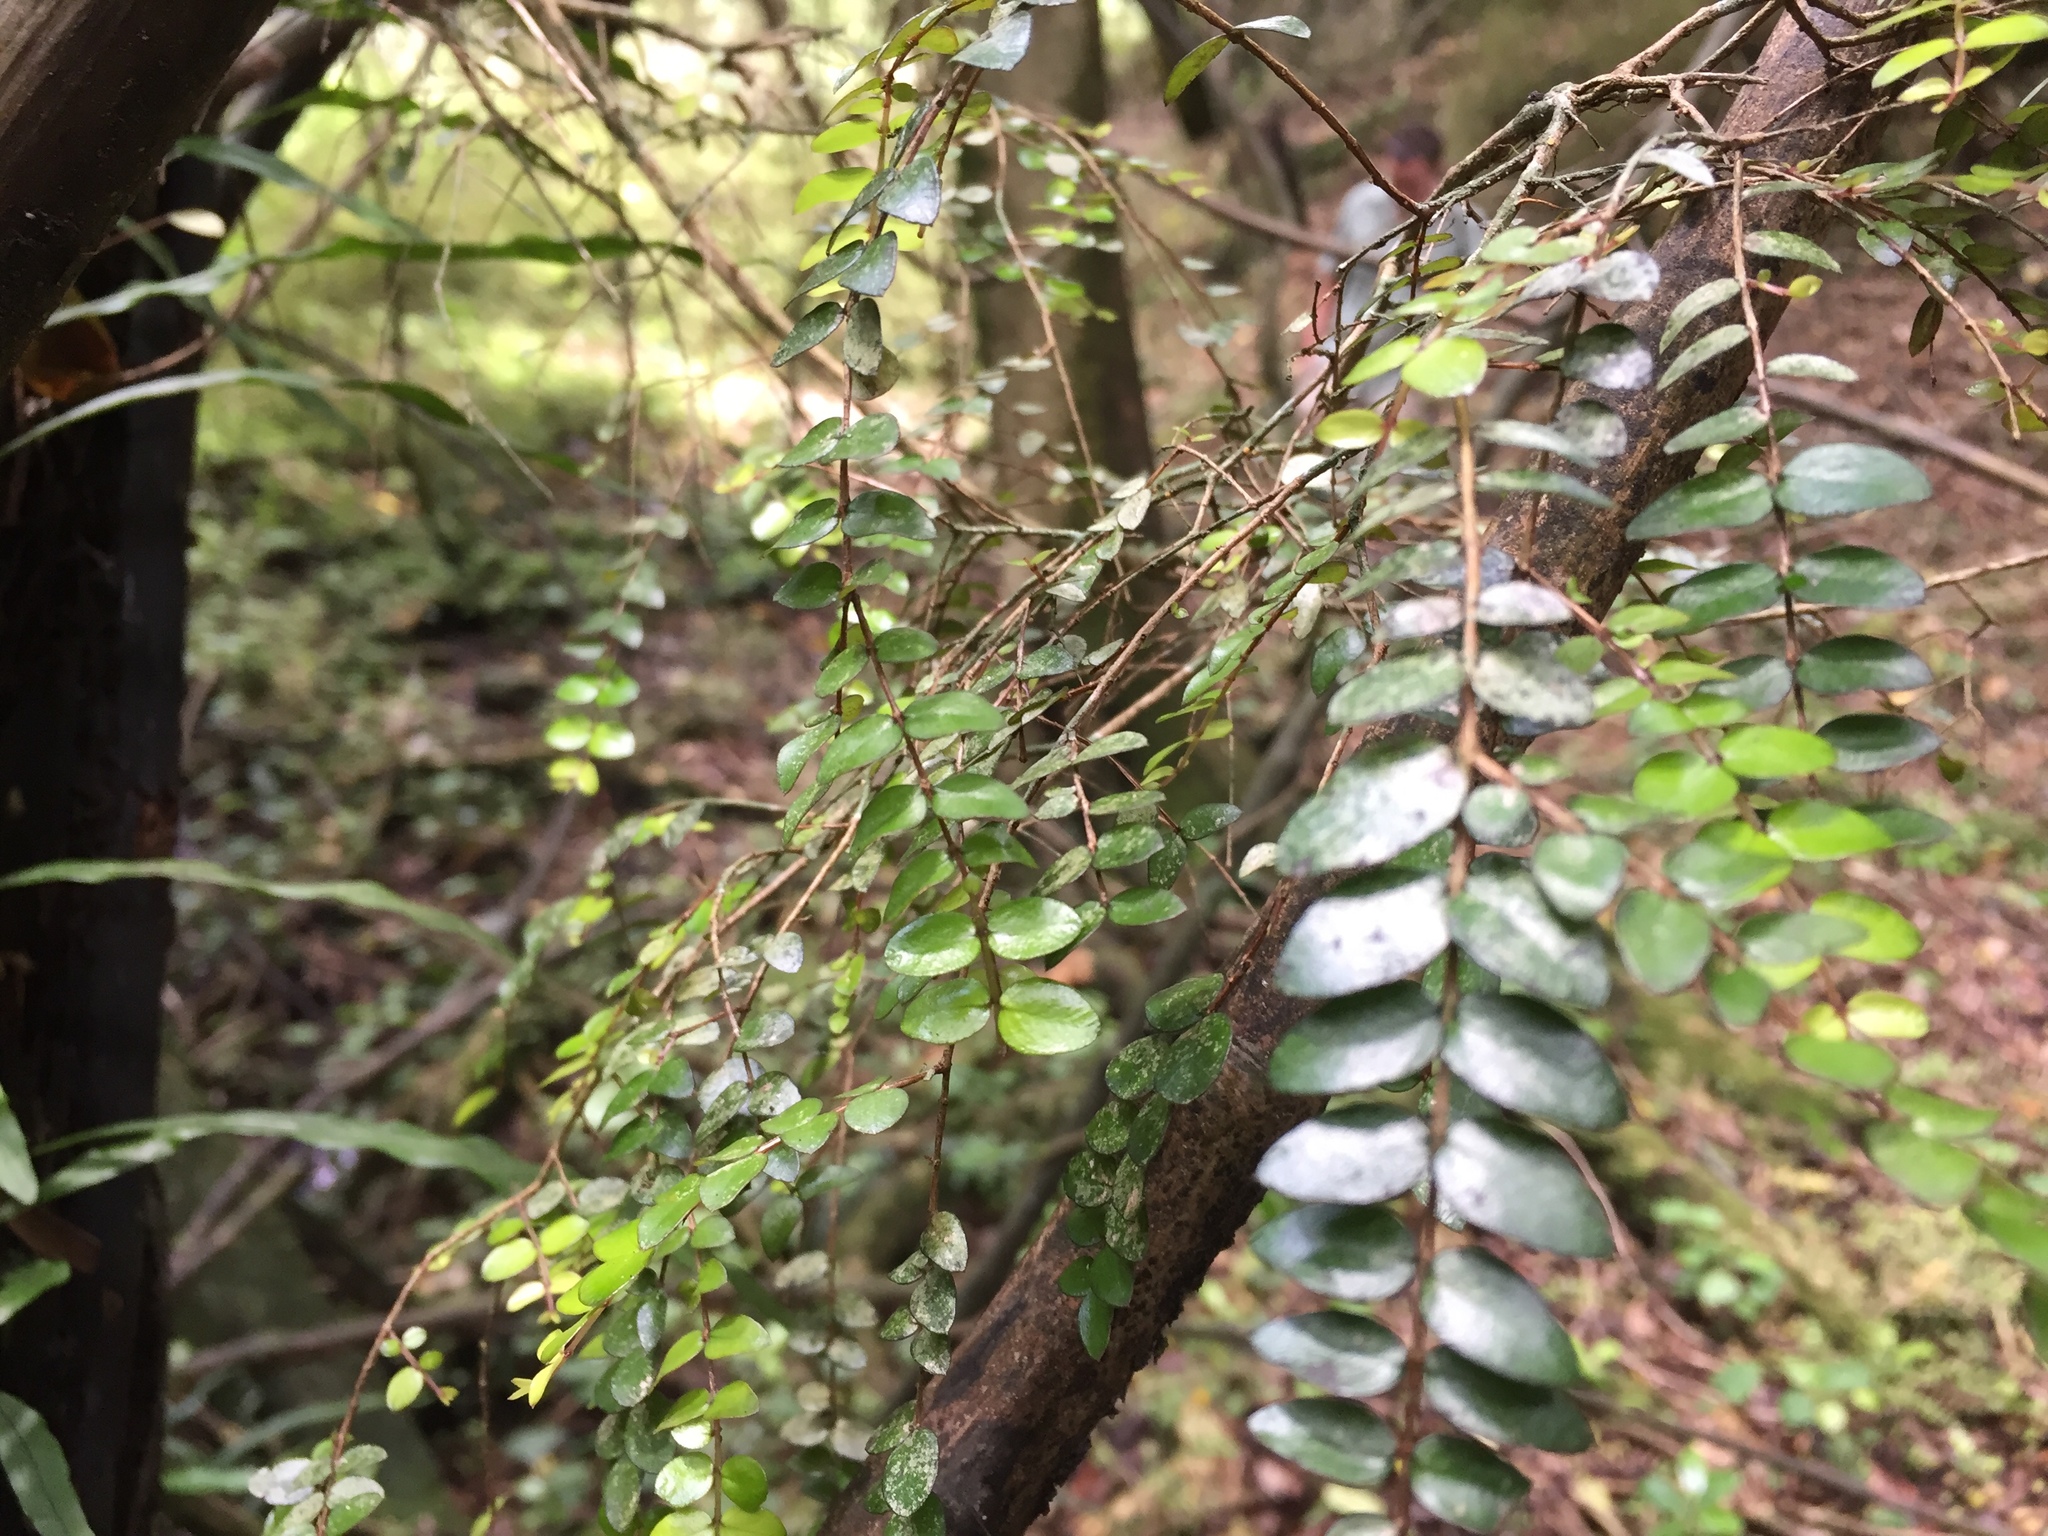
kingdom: Plantae
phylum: Tracheophyta
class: Magnoliopsida
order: Myrtales
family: Myrtaceae
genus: Metrosideros
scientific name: Metrosideros diffusa
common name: Small ratavine
